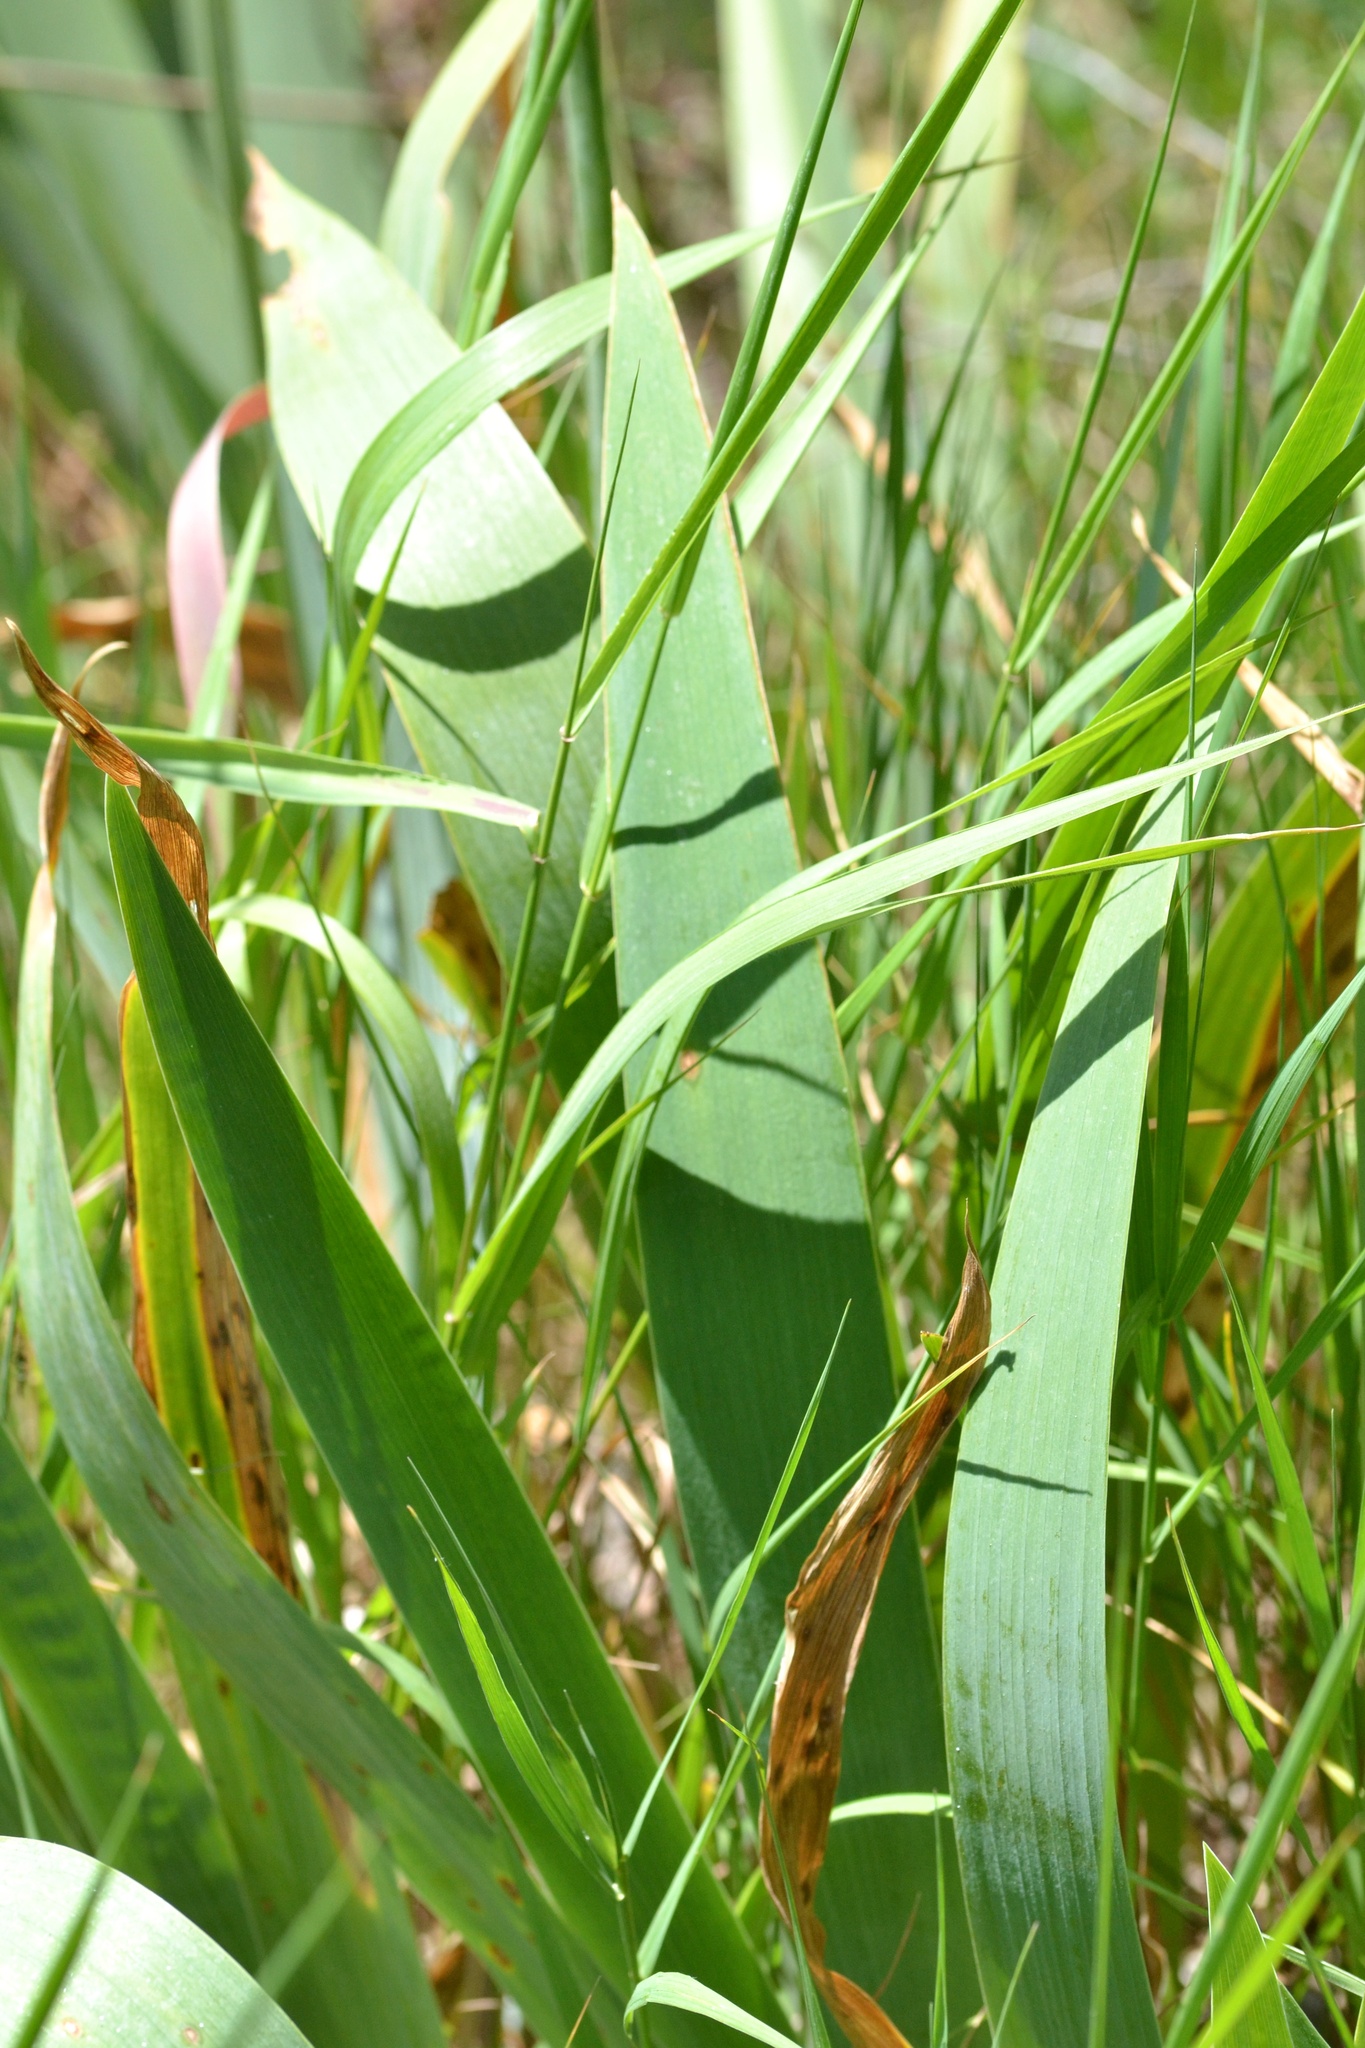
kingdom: Plantae
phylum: Tracheophyta
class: Liliopsida
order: Asparagales
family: Iridaceae
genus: Iris
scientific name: Iris hybrida
